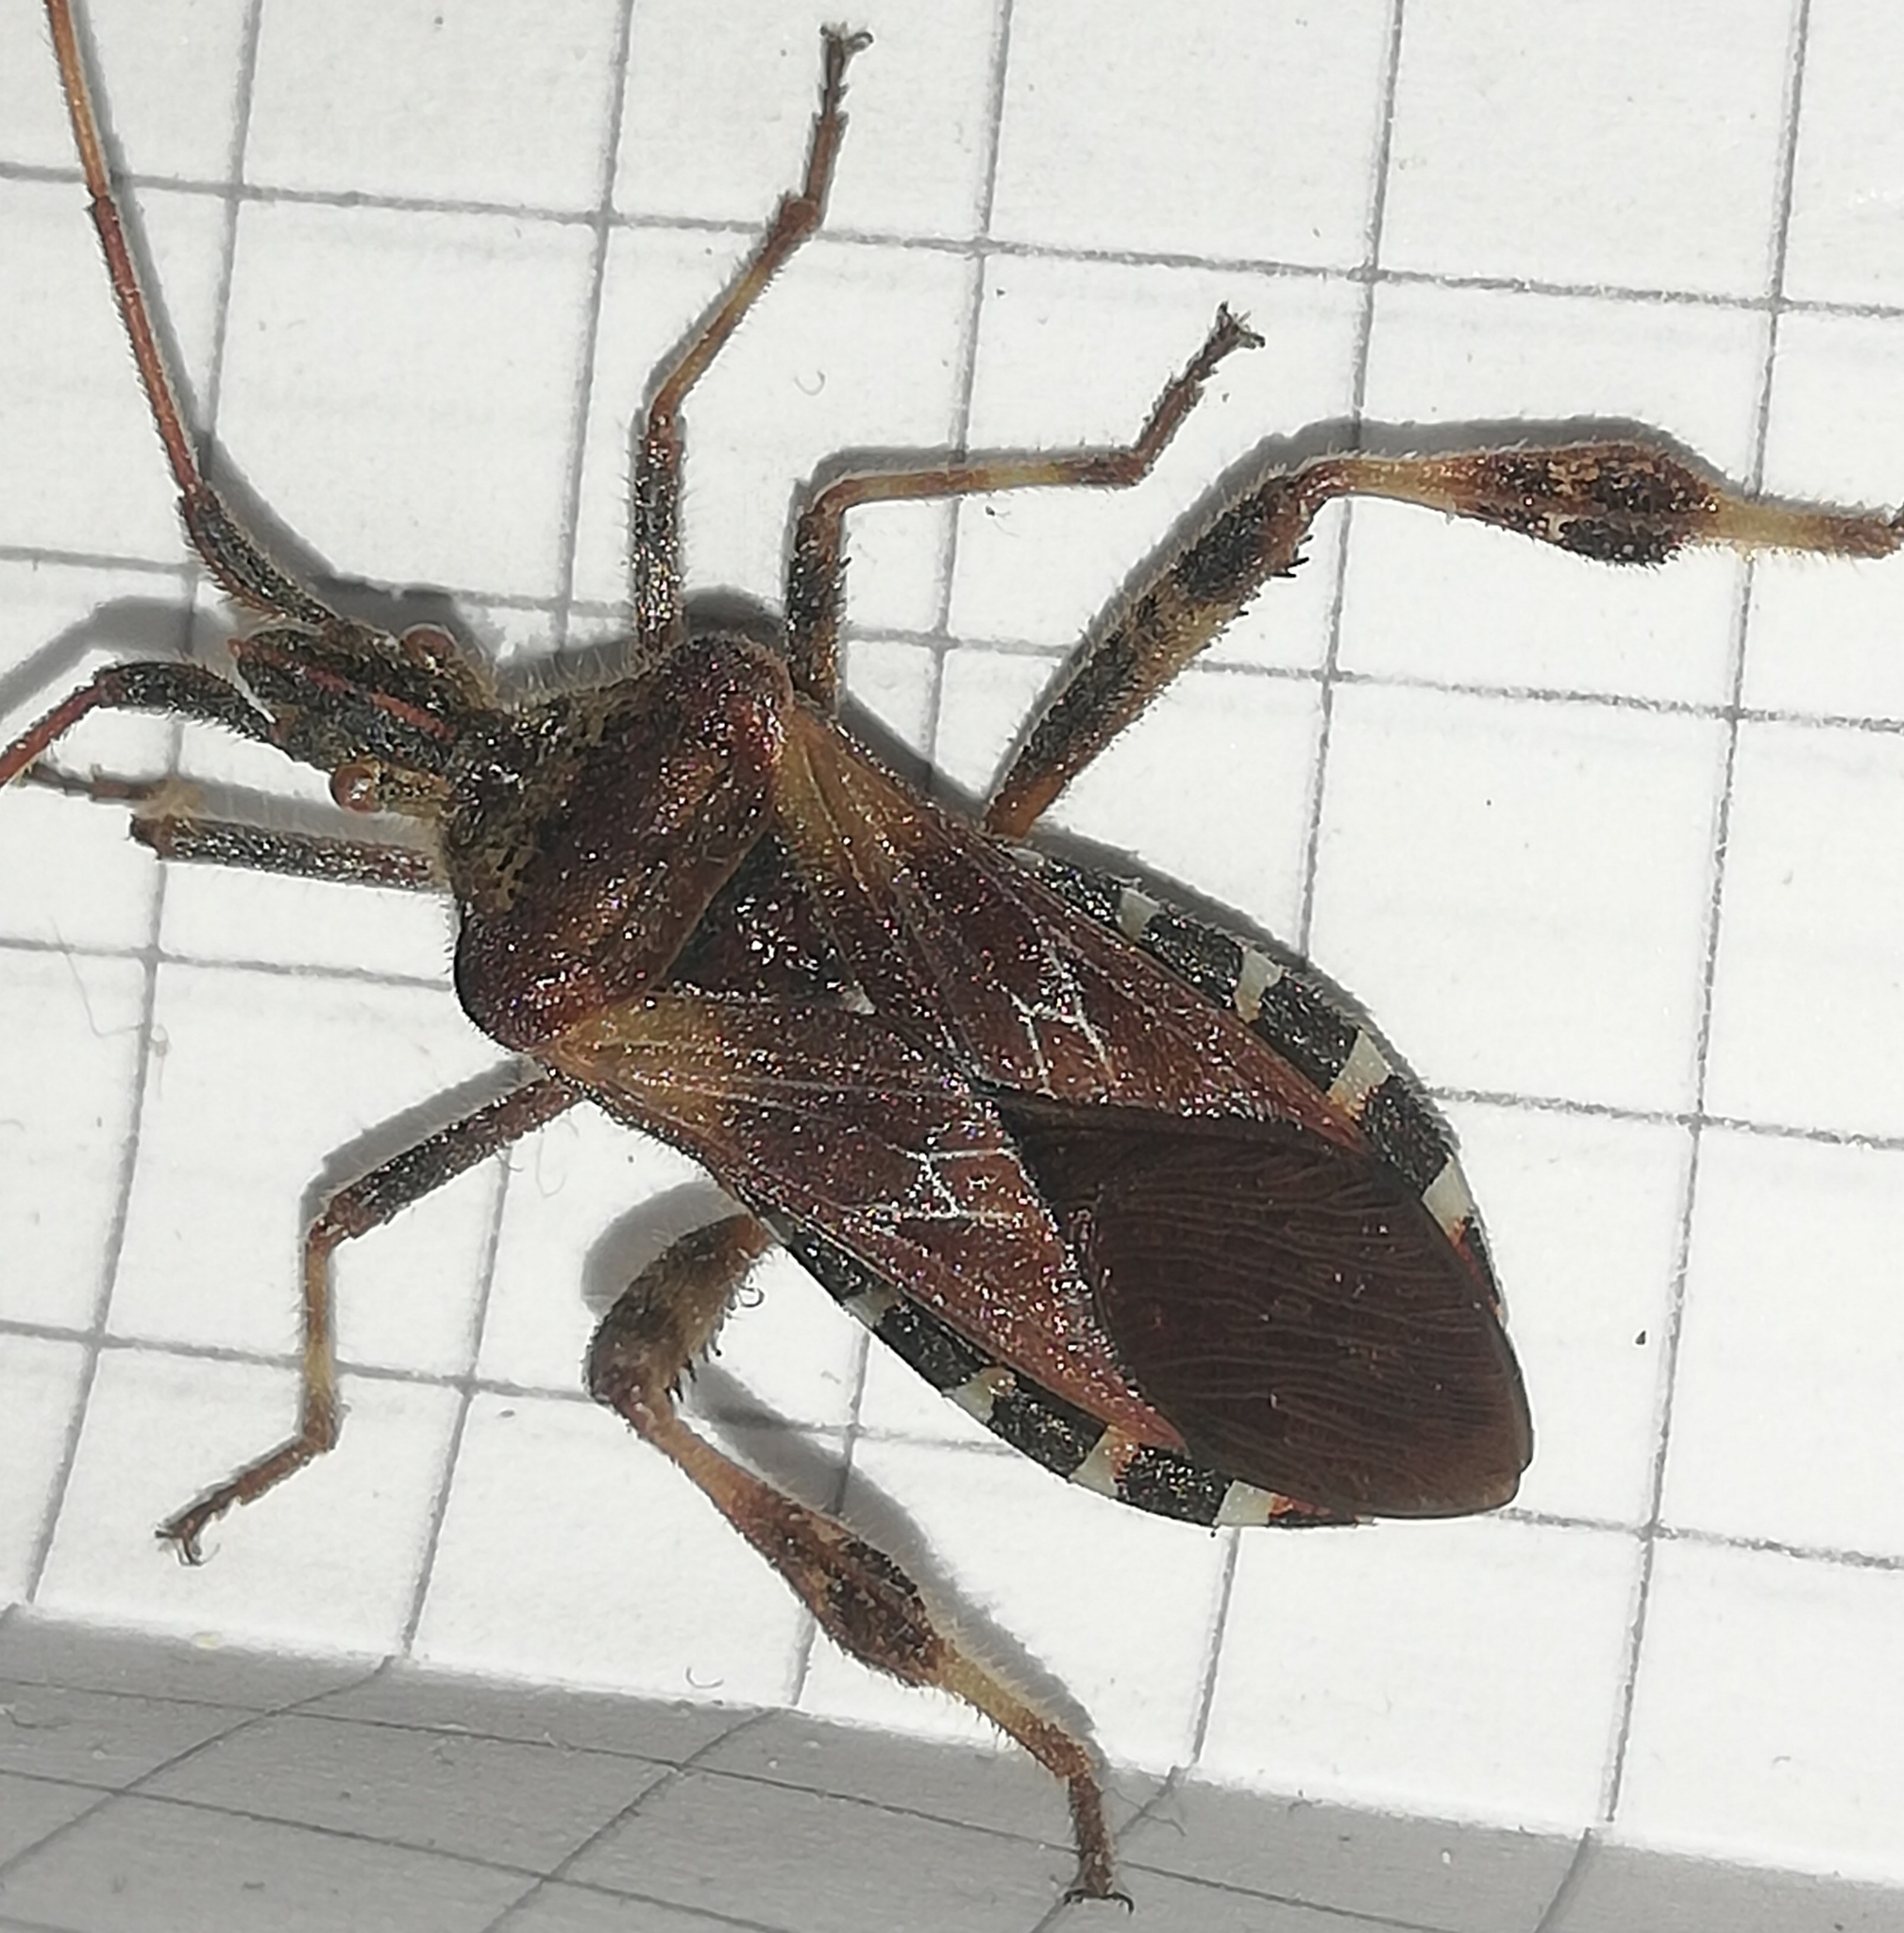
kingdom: Animalia
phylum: Arthropoda
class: Insecta
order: Hemiptera
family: Coreidae
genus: Leptoglossus
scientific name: Leptoglossus occidentalis
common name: Western conifer-seed bug
